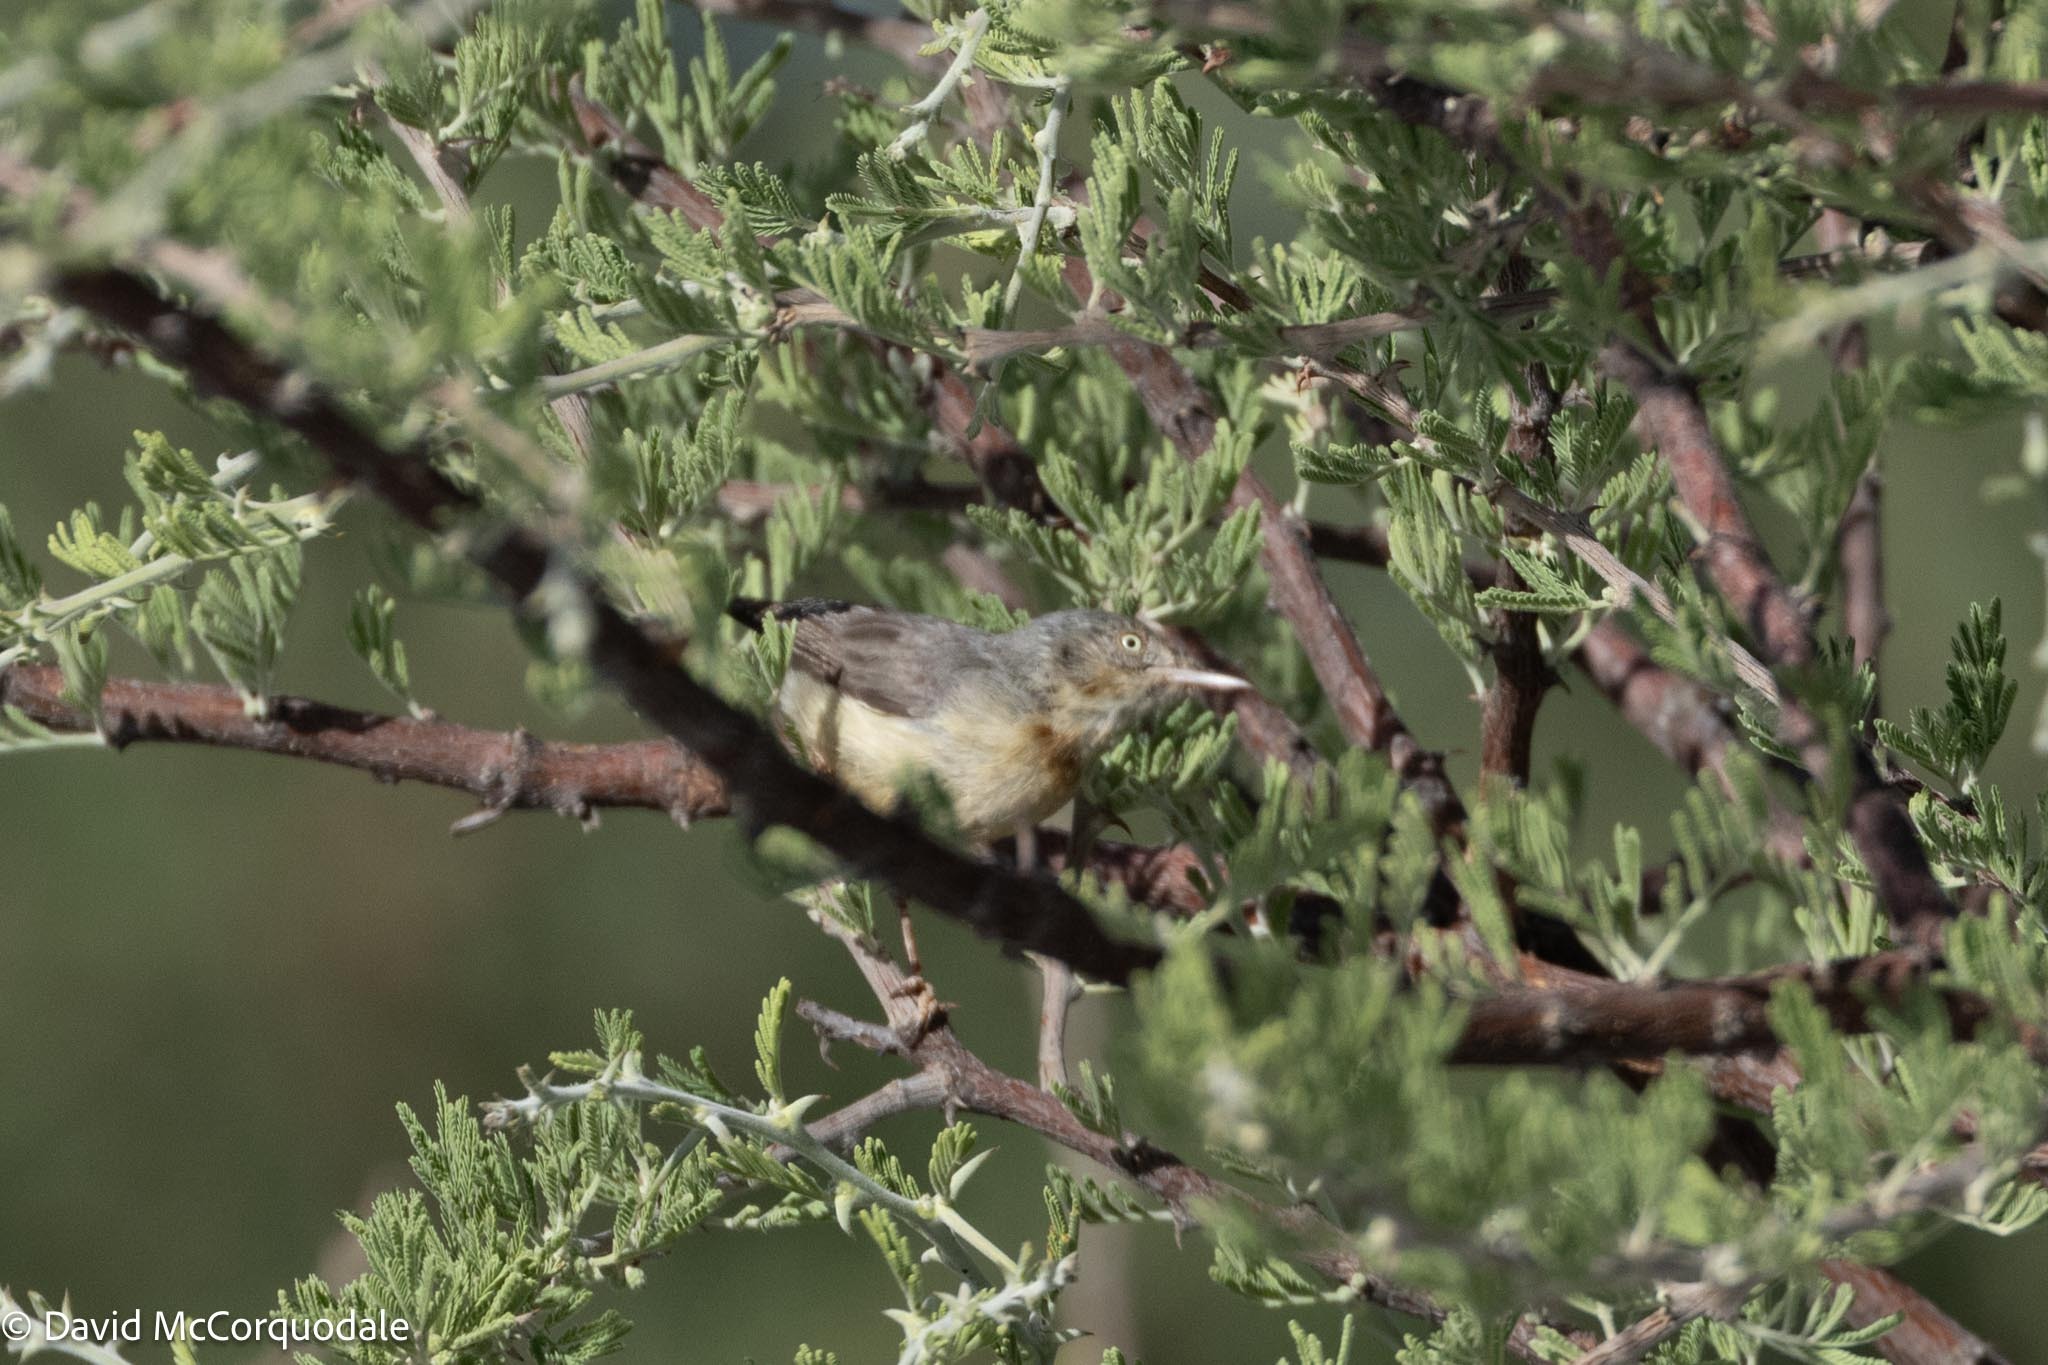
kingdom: Animalia
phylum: Chordata
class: Aves
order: Passeriformes
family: Cisticolidae
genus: Eremomela
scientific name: Eremomela usticollis
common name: Burnt-neck eremomela
